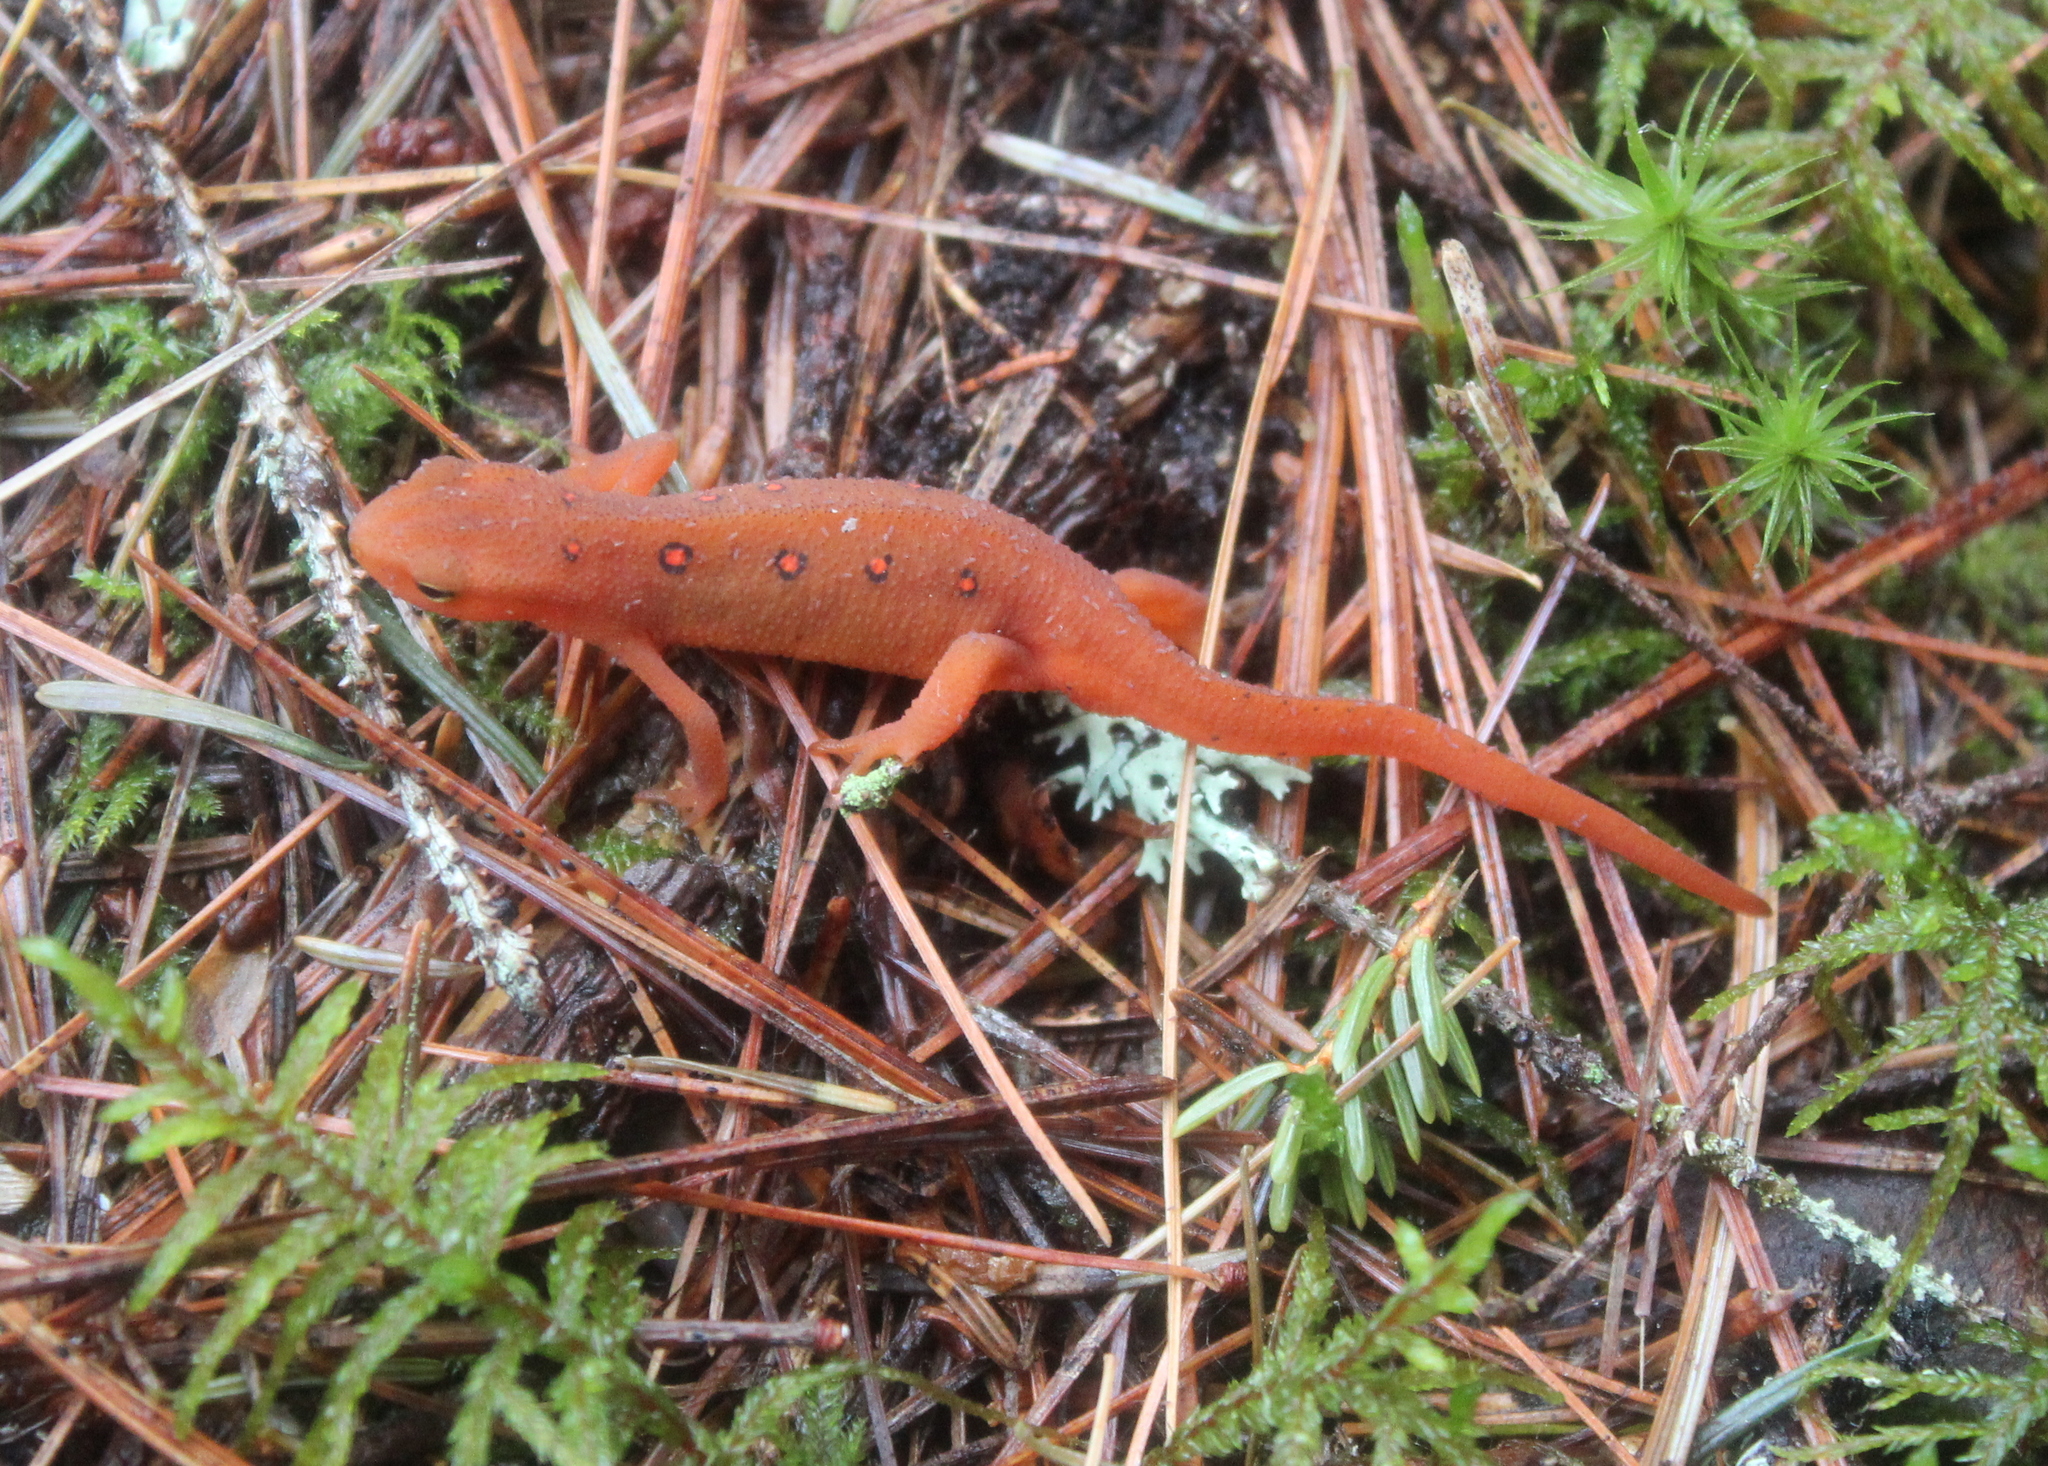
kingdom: Animalia
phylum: Chordata
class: Amphibia
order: Caudata
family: Salamandridae
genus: Notophthalmus
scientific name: Notophthalmus viridescens
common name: Eastern newt
